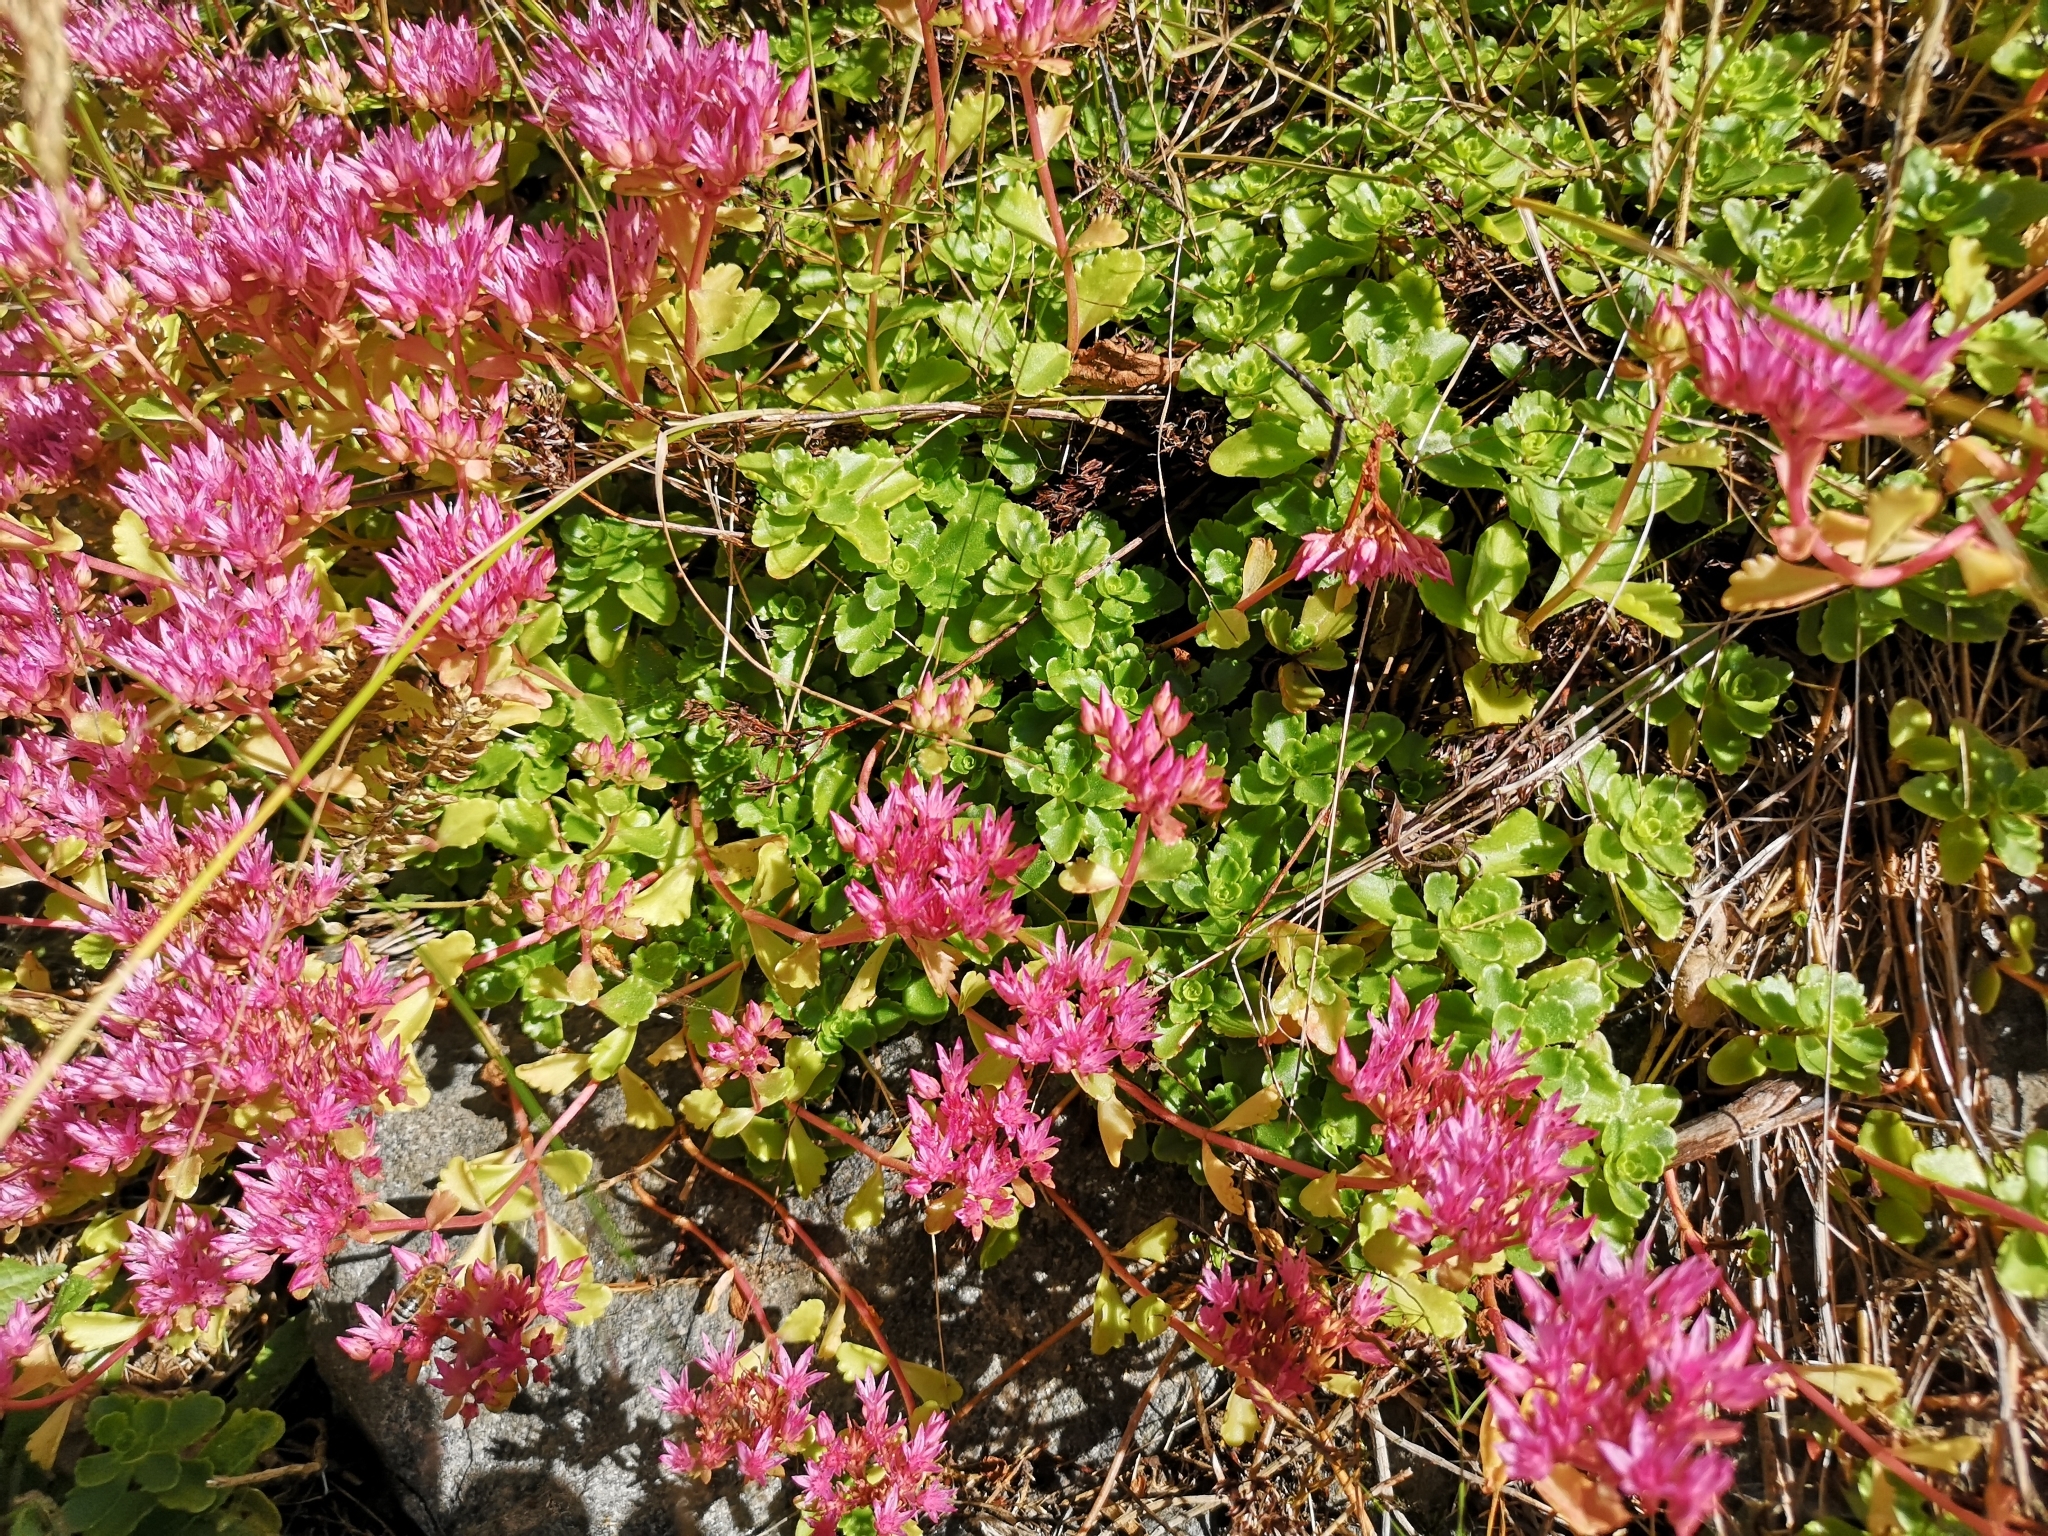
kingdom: Plantae
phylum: Tracheophyta
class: Magnoliopsida
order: Saxifragales
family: Crassulaceae
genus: Phedimus
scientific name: Phedimus spurius
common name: Caucasian stonecrop
